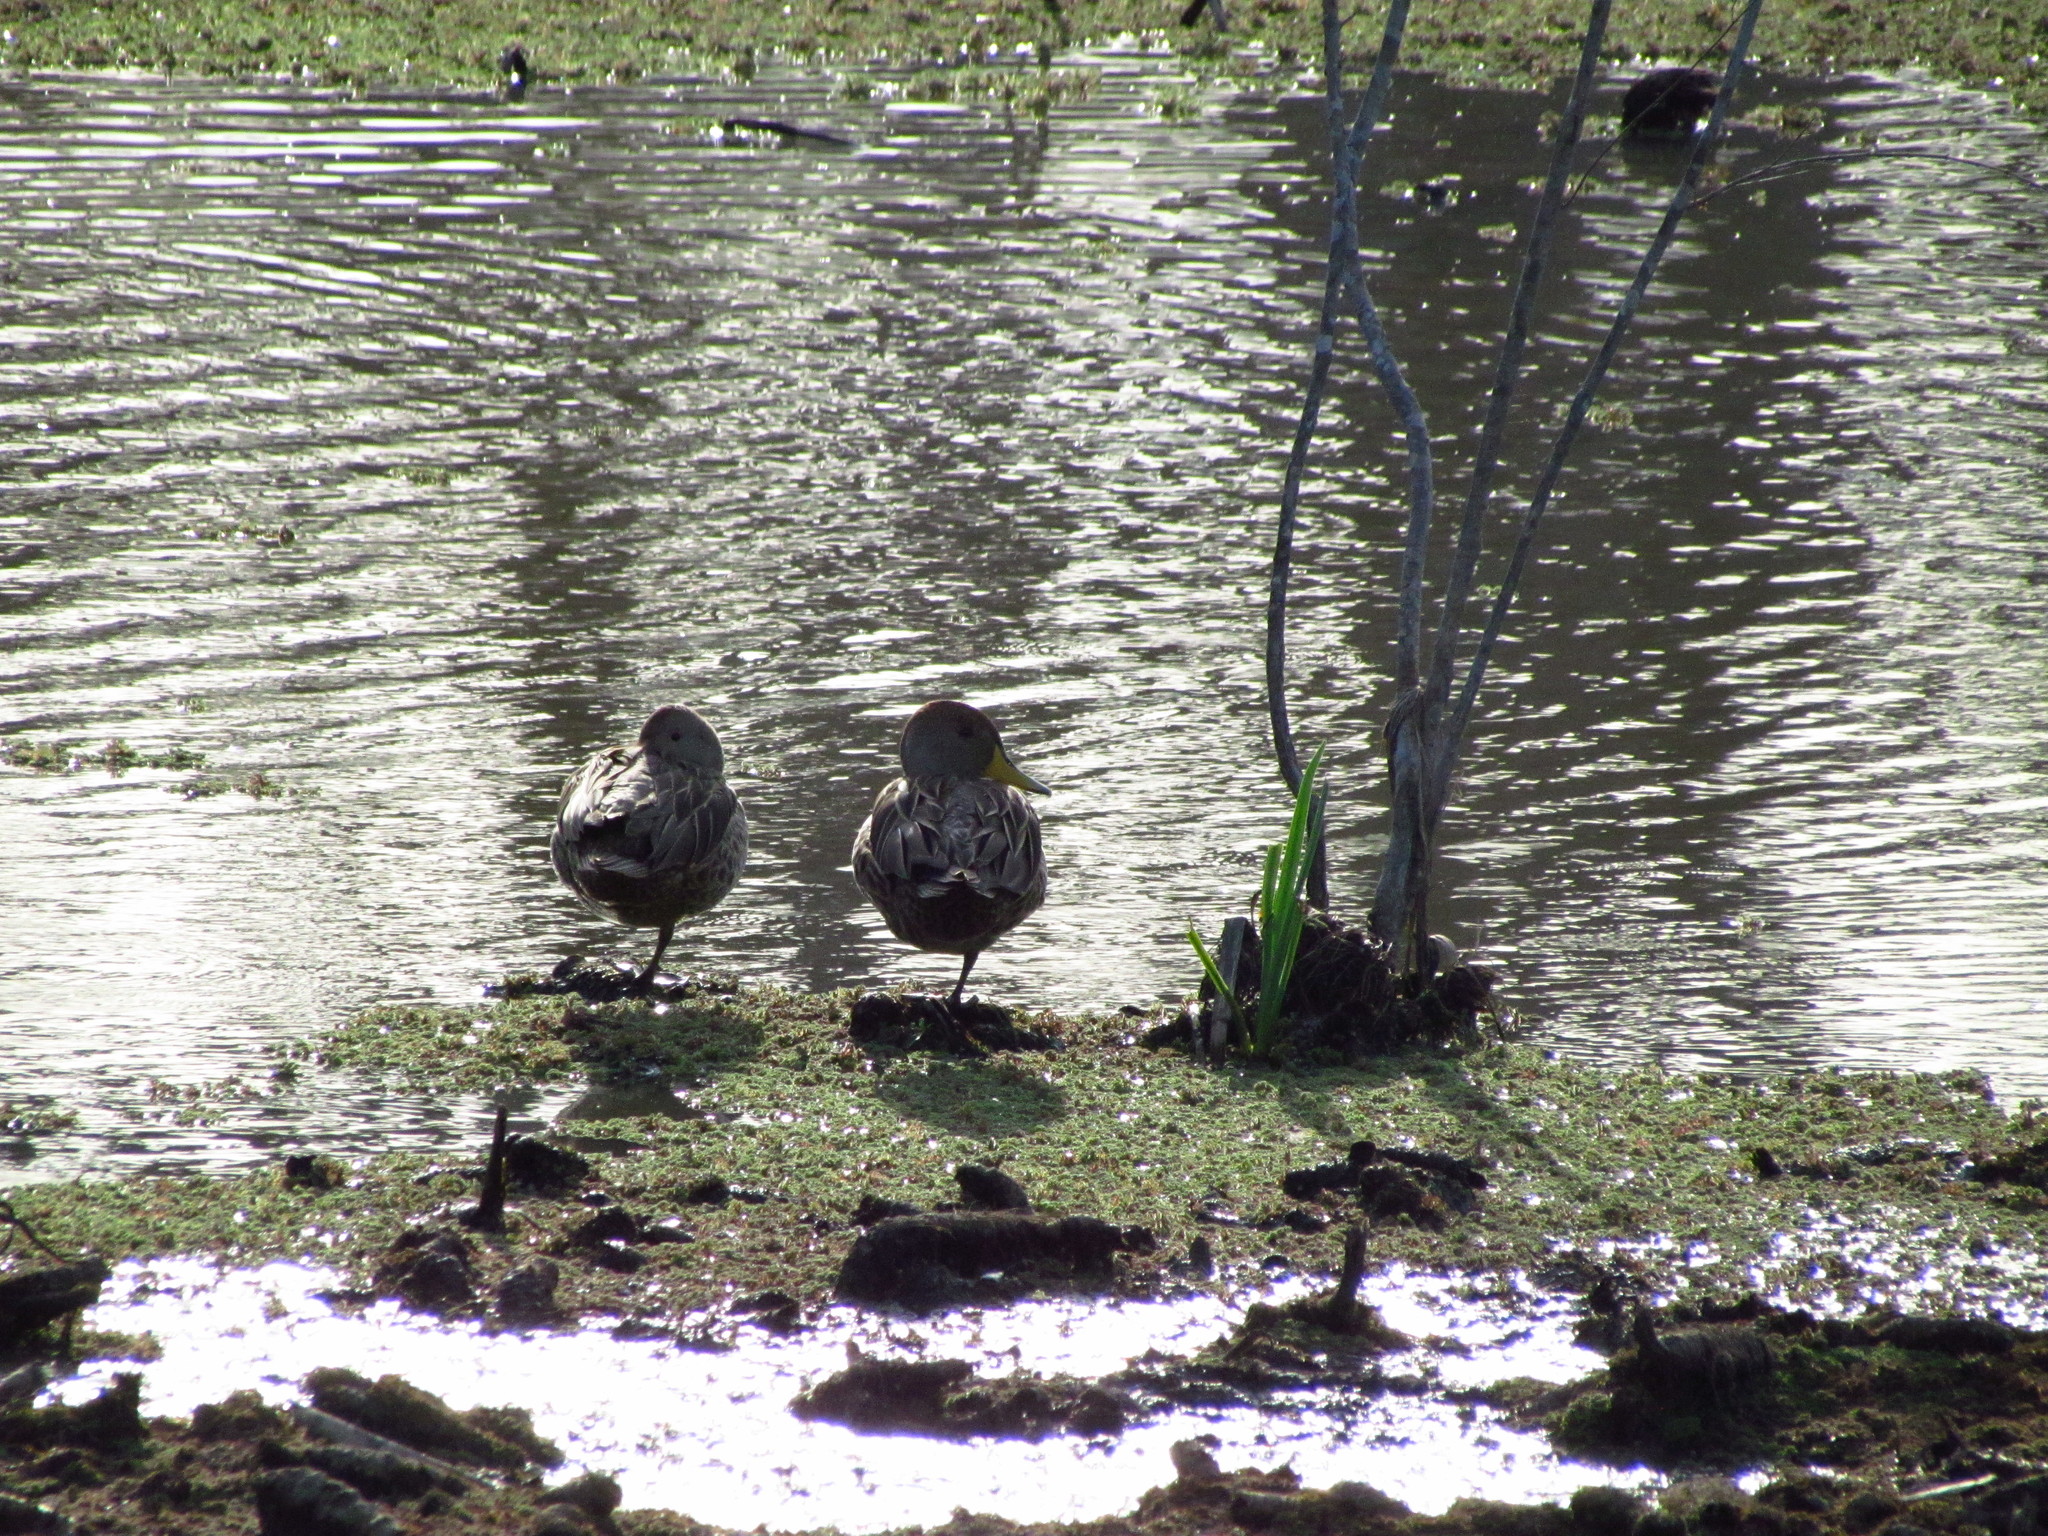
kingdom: Animalia
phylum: Chordata
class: Aves
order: Anseriformes
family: Anatidae
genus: Anas
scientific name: Anas georgica
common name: Yellow-billed pintail
